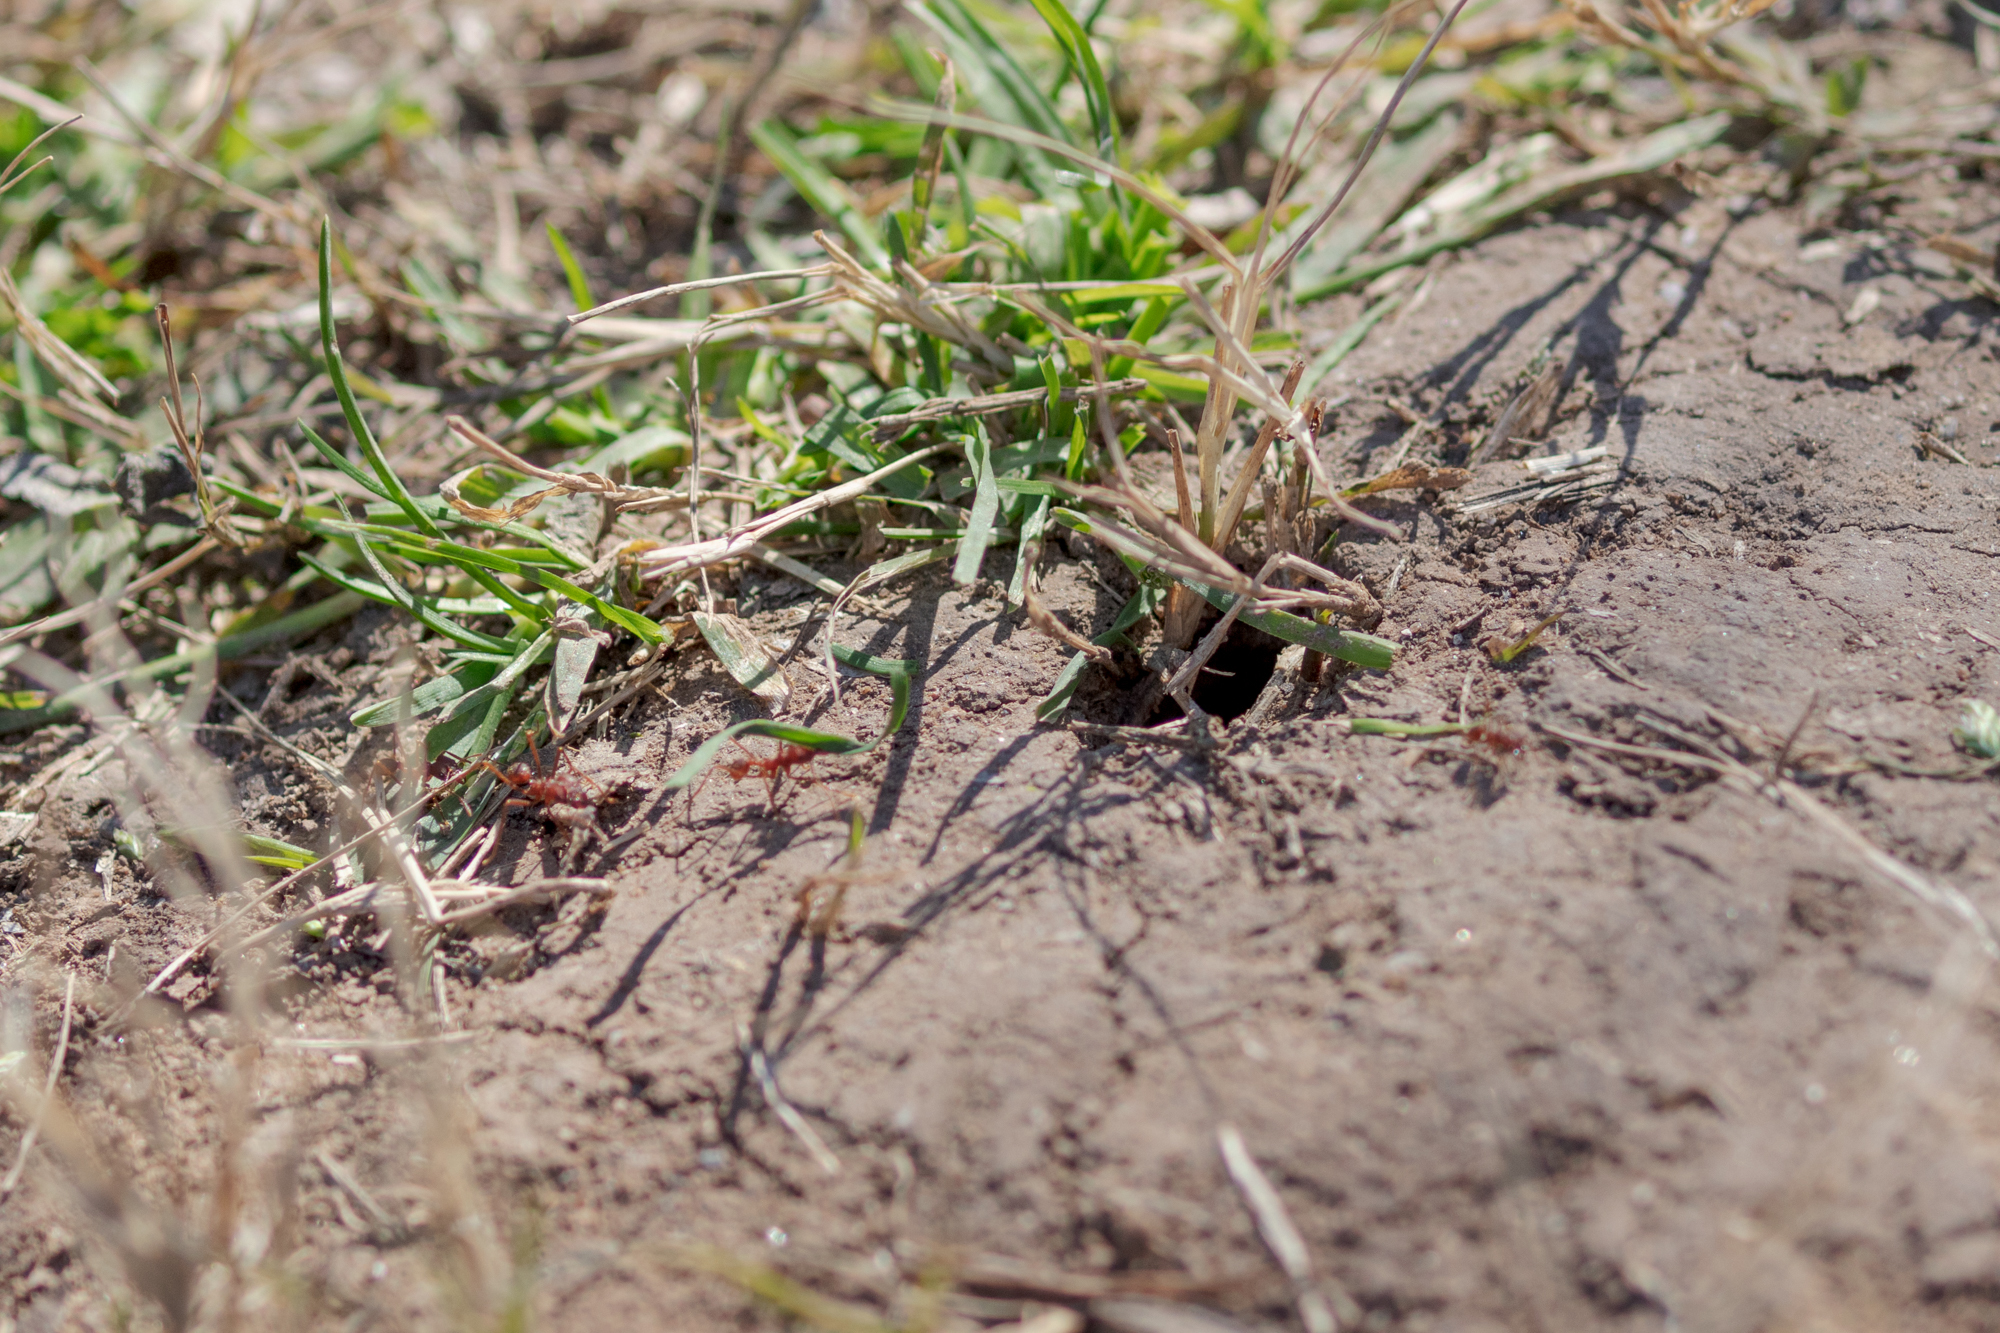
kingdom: Animalia
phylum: Arthropoda
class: Insecta
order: Hymenoptera
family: Formicidae
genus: Atta
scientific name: Atta texana
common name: Texas leafcutting ant
